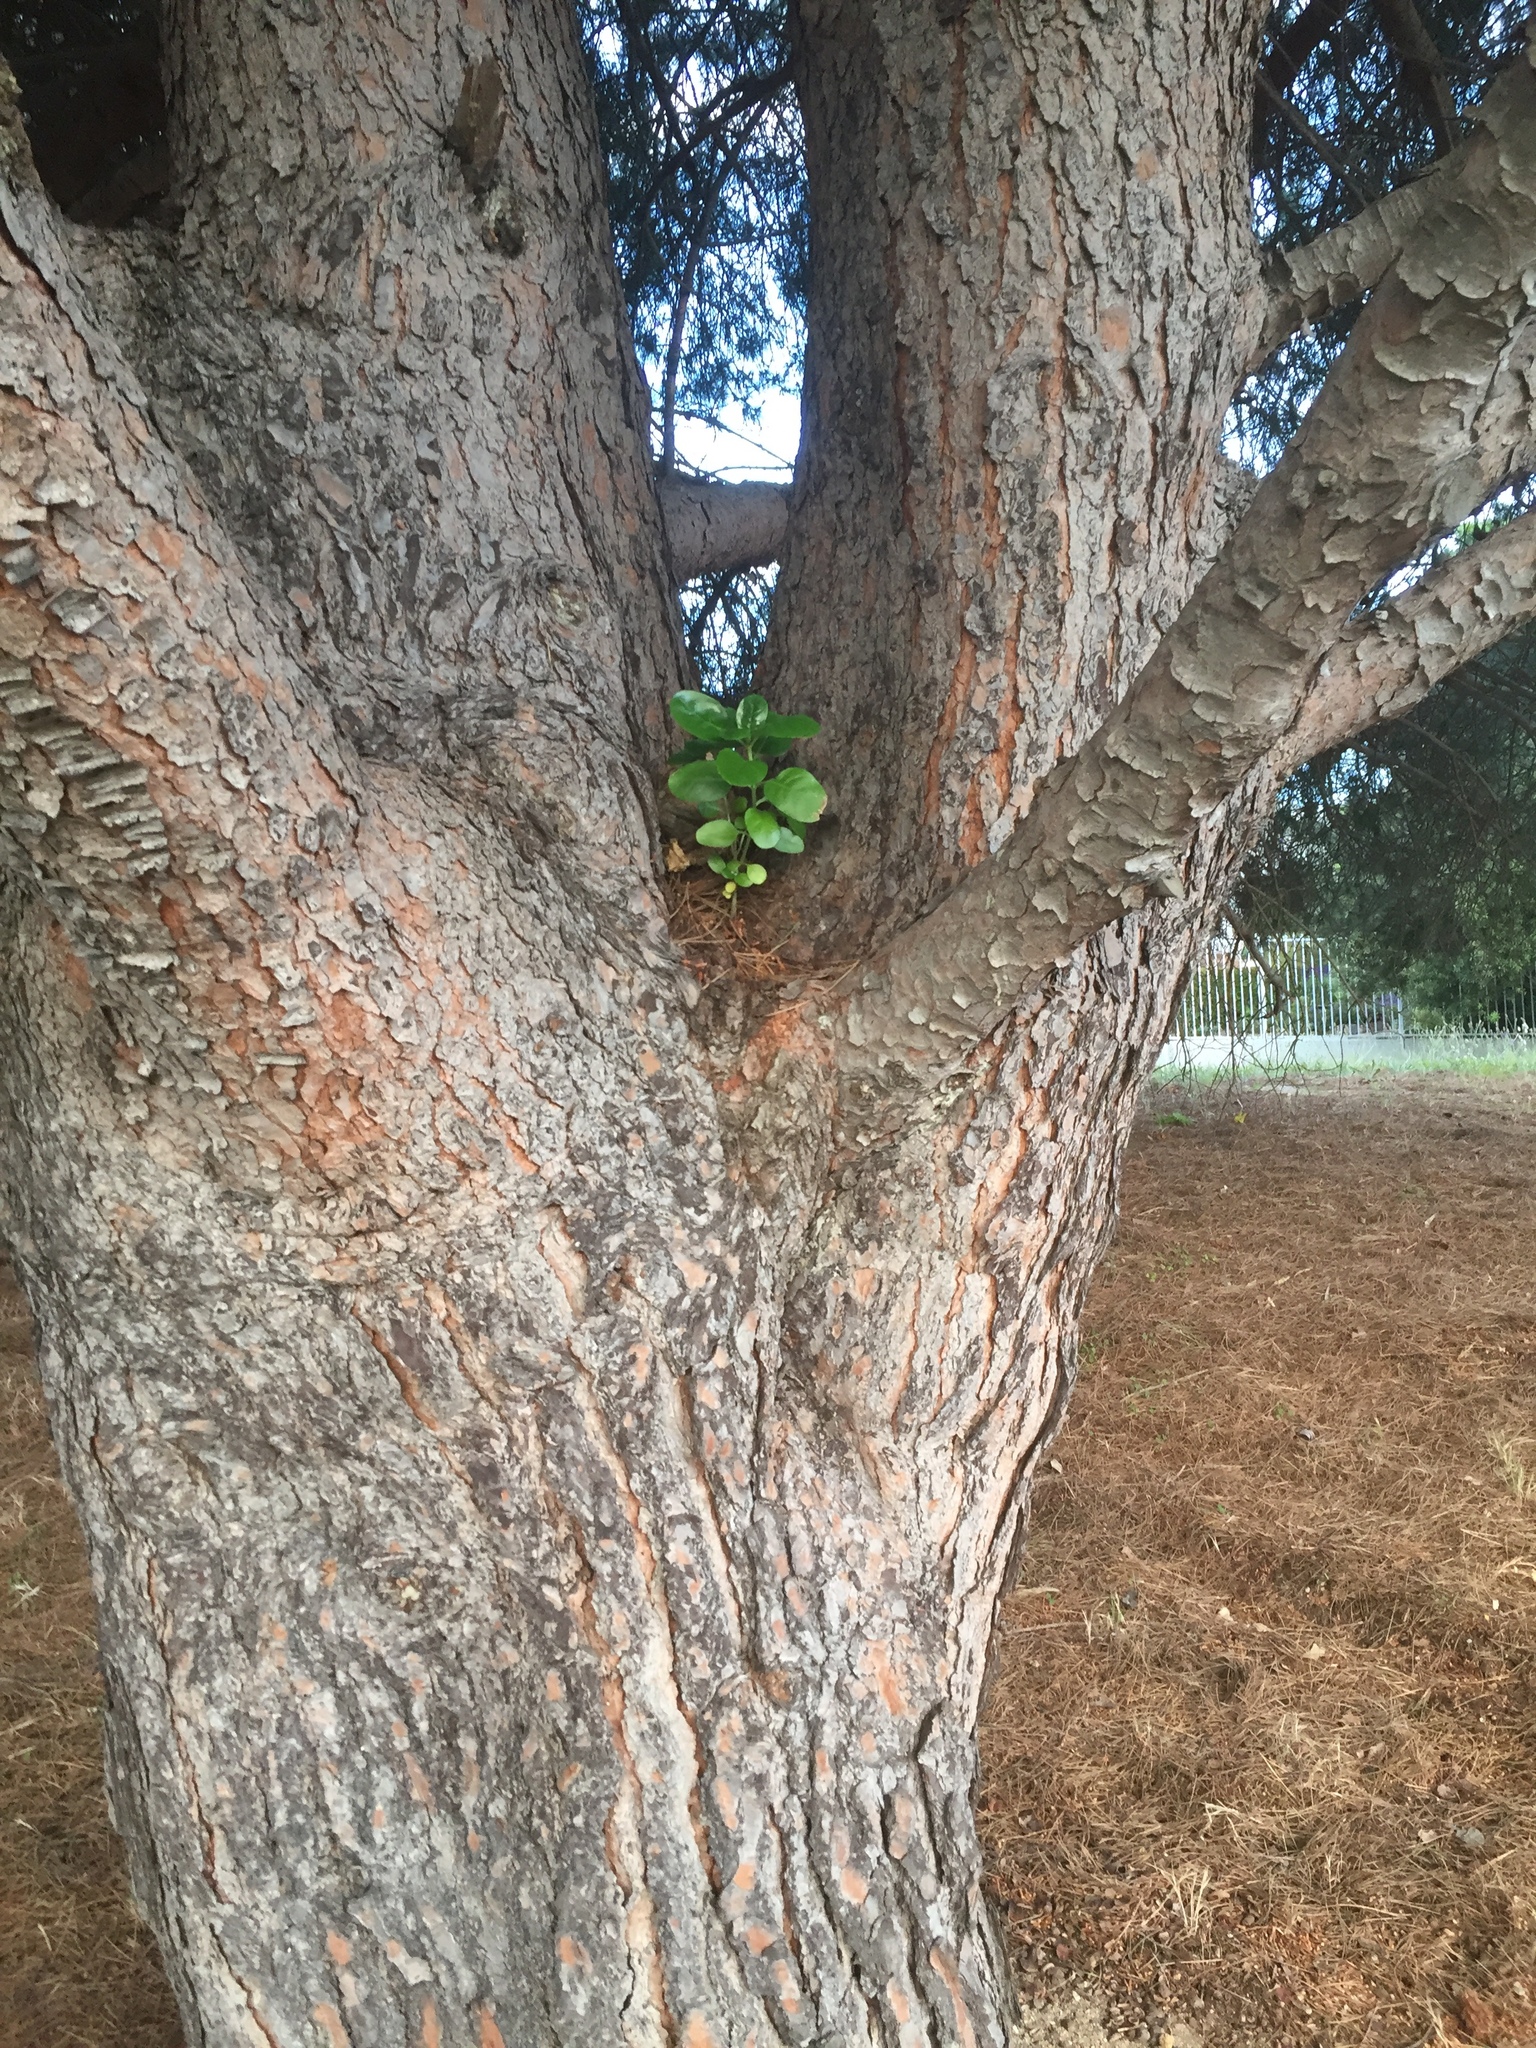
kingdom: Plantae
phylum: Tracheophyta
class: Magnoliopsida
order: Gentianales
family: Rubiaceae
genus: Coprosma
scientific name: Coprosma repens
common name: Tree bedstraw
